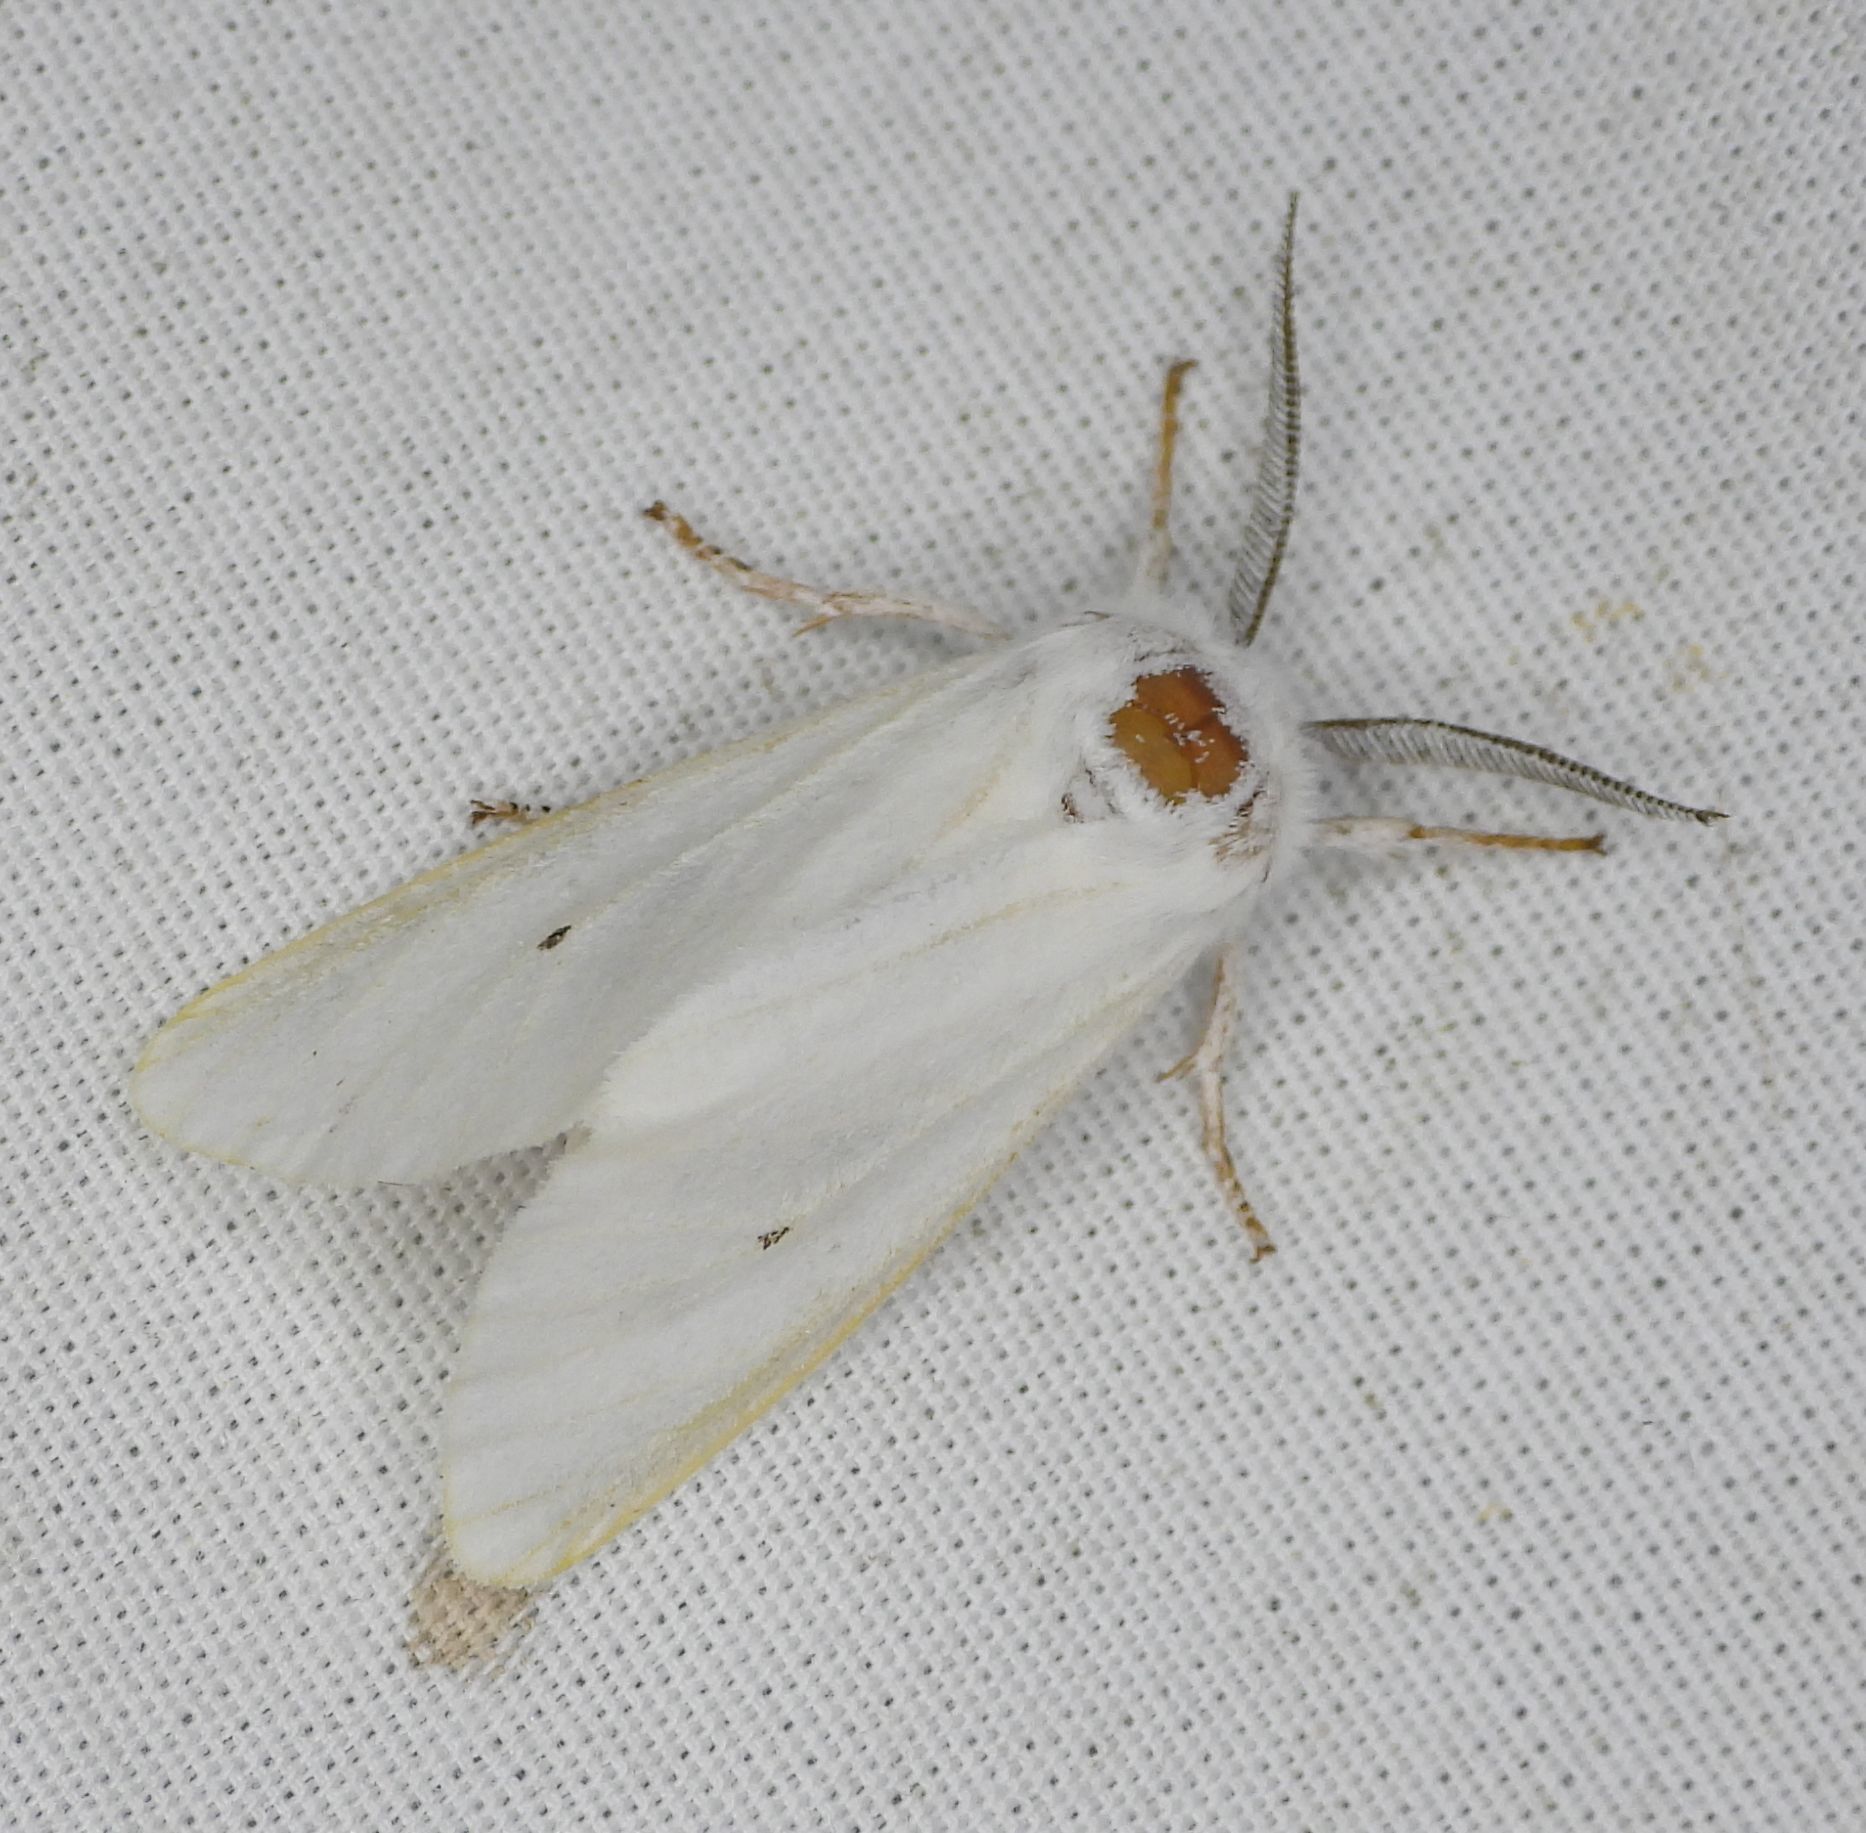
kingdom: Animalia
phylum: Arthropoda
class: Insecta
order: Lepidoptera
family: Erebidae
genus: Spilosoma
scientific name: Spilosoma virginica
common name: Virginia tiger moth
